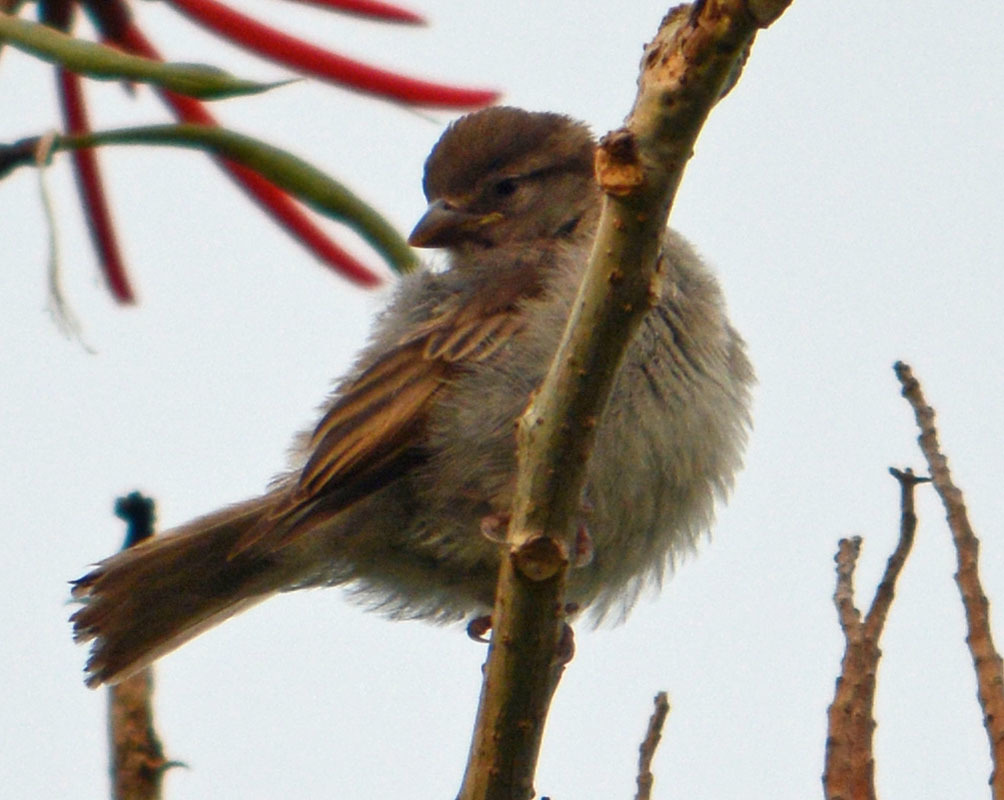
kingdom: Animalia
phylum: Chordata
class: Aves
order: Passeriformes
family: Passeridae
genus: Passer
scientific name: Passer domesticus
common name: House sparrow
